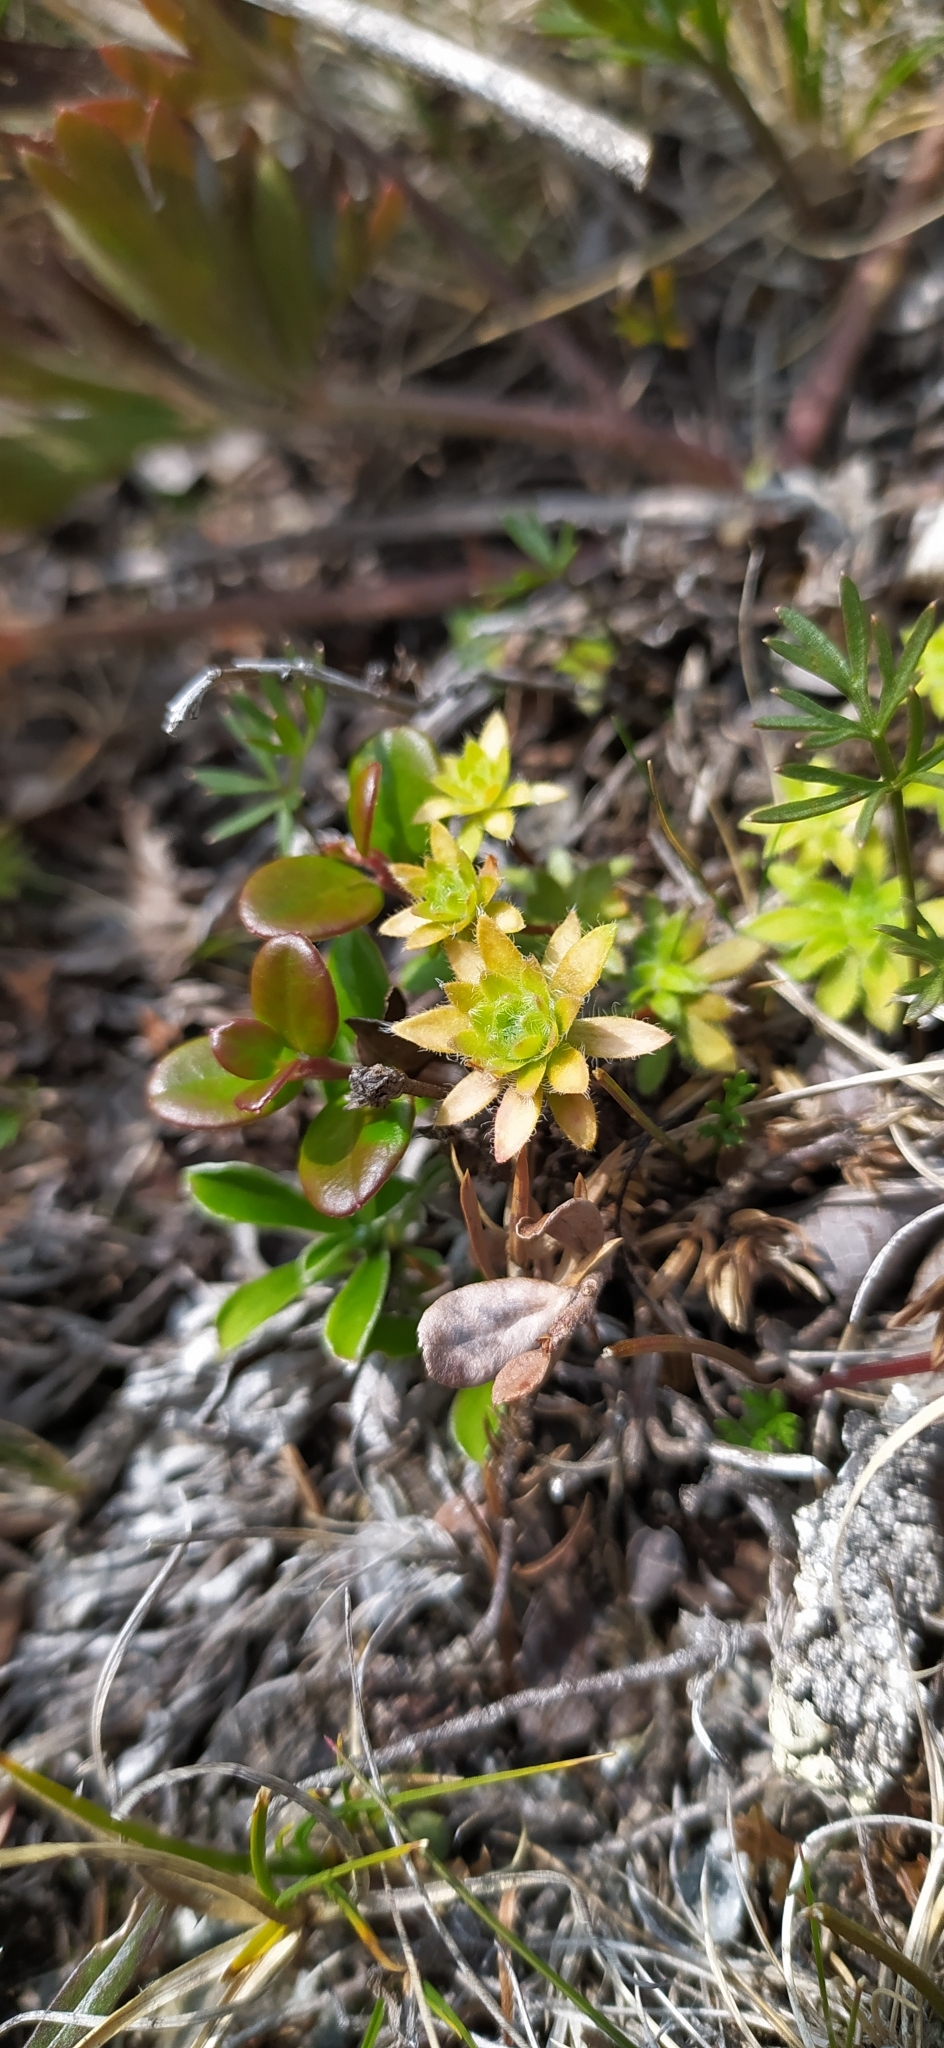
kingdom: Plantae
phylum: Tracheophyta
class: Magnoliopsida
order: Ericales
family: Primulaceae
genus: Androsace
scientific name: Androsace chamaejasme
